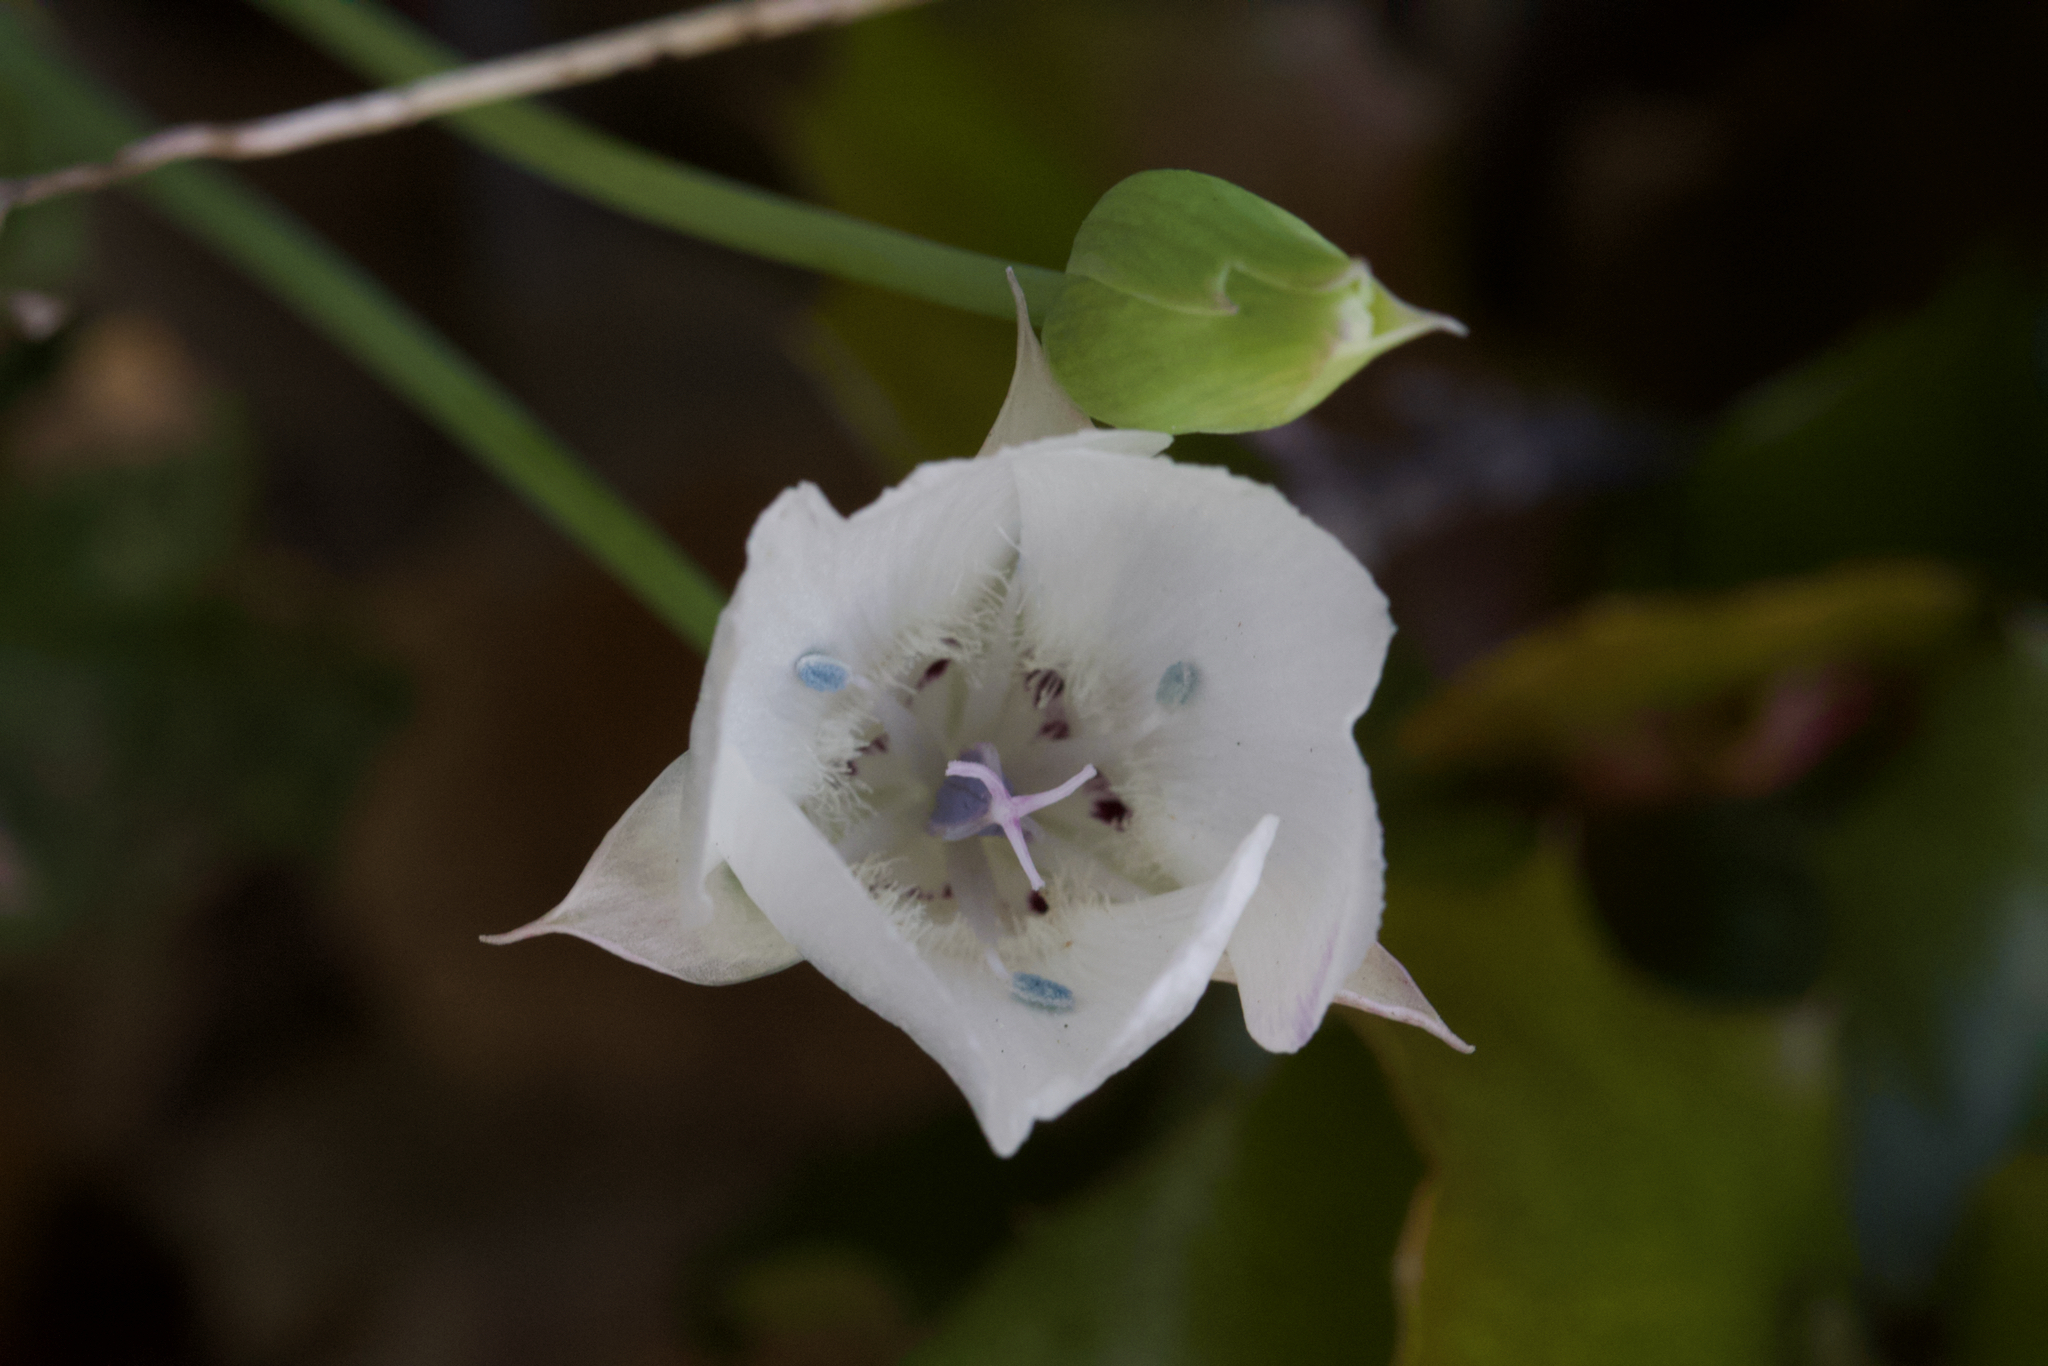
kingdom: Plantae
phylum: Tracheophyta
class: Liliopsida
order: Liliales
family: Liliaceae
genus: Calochortus
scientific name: Calochortus umbellatus
